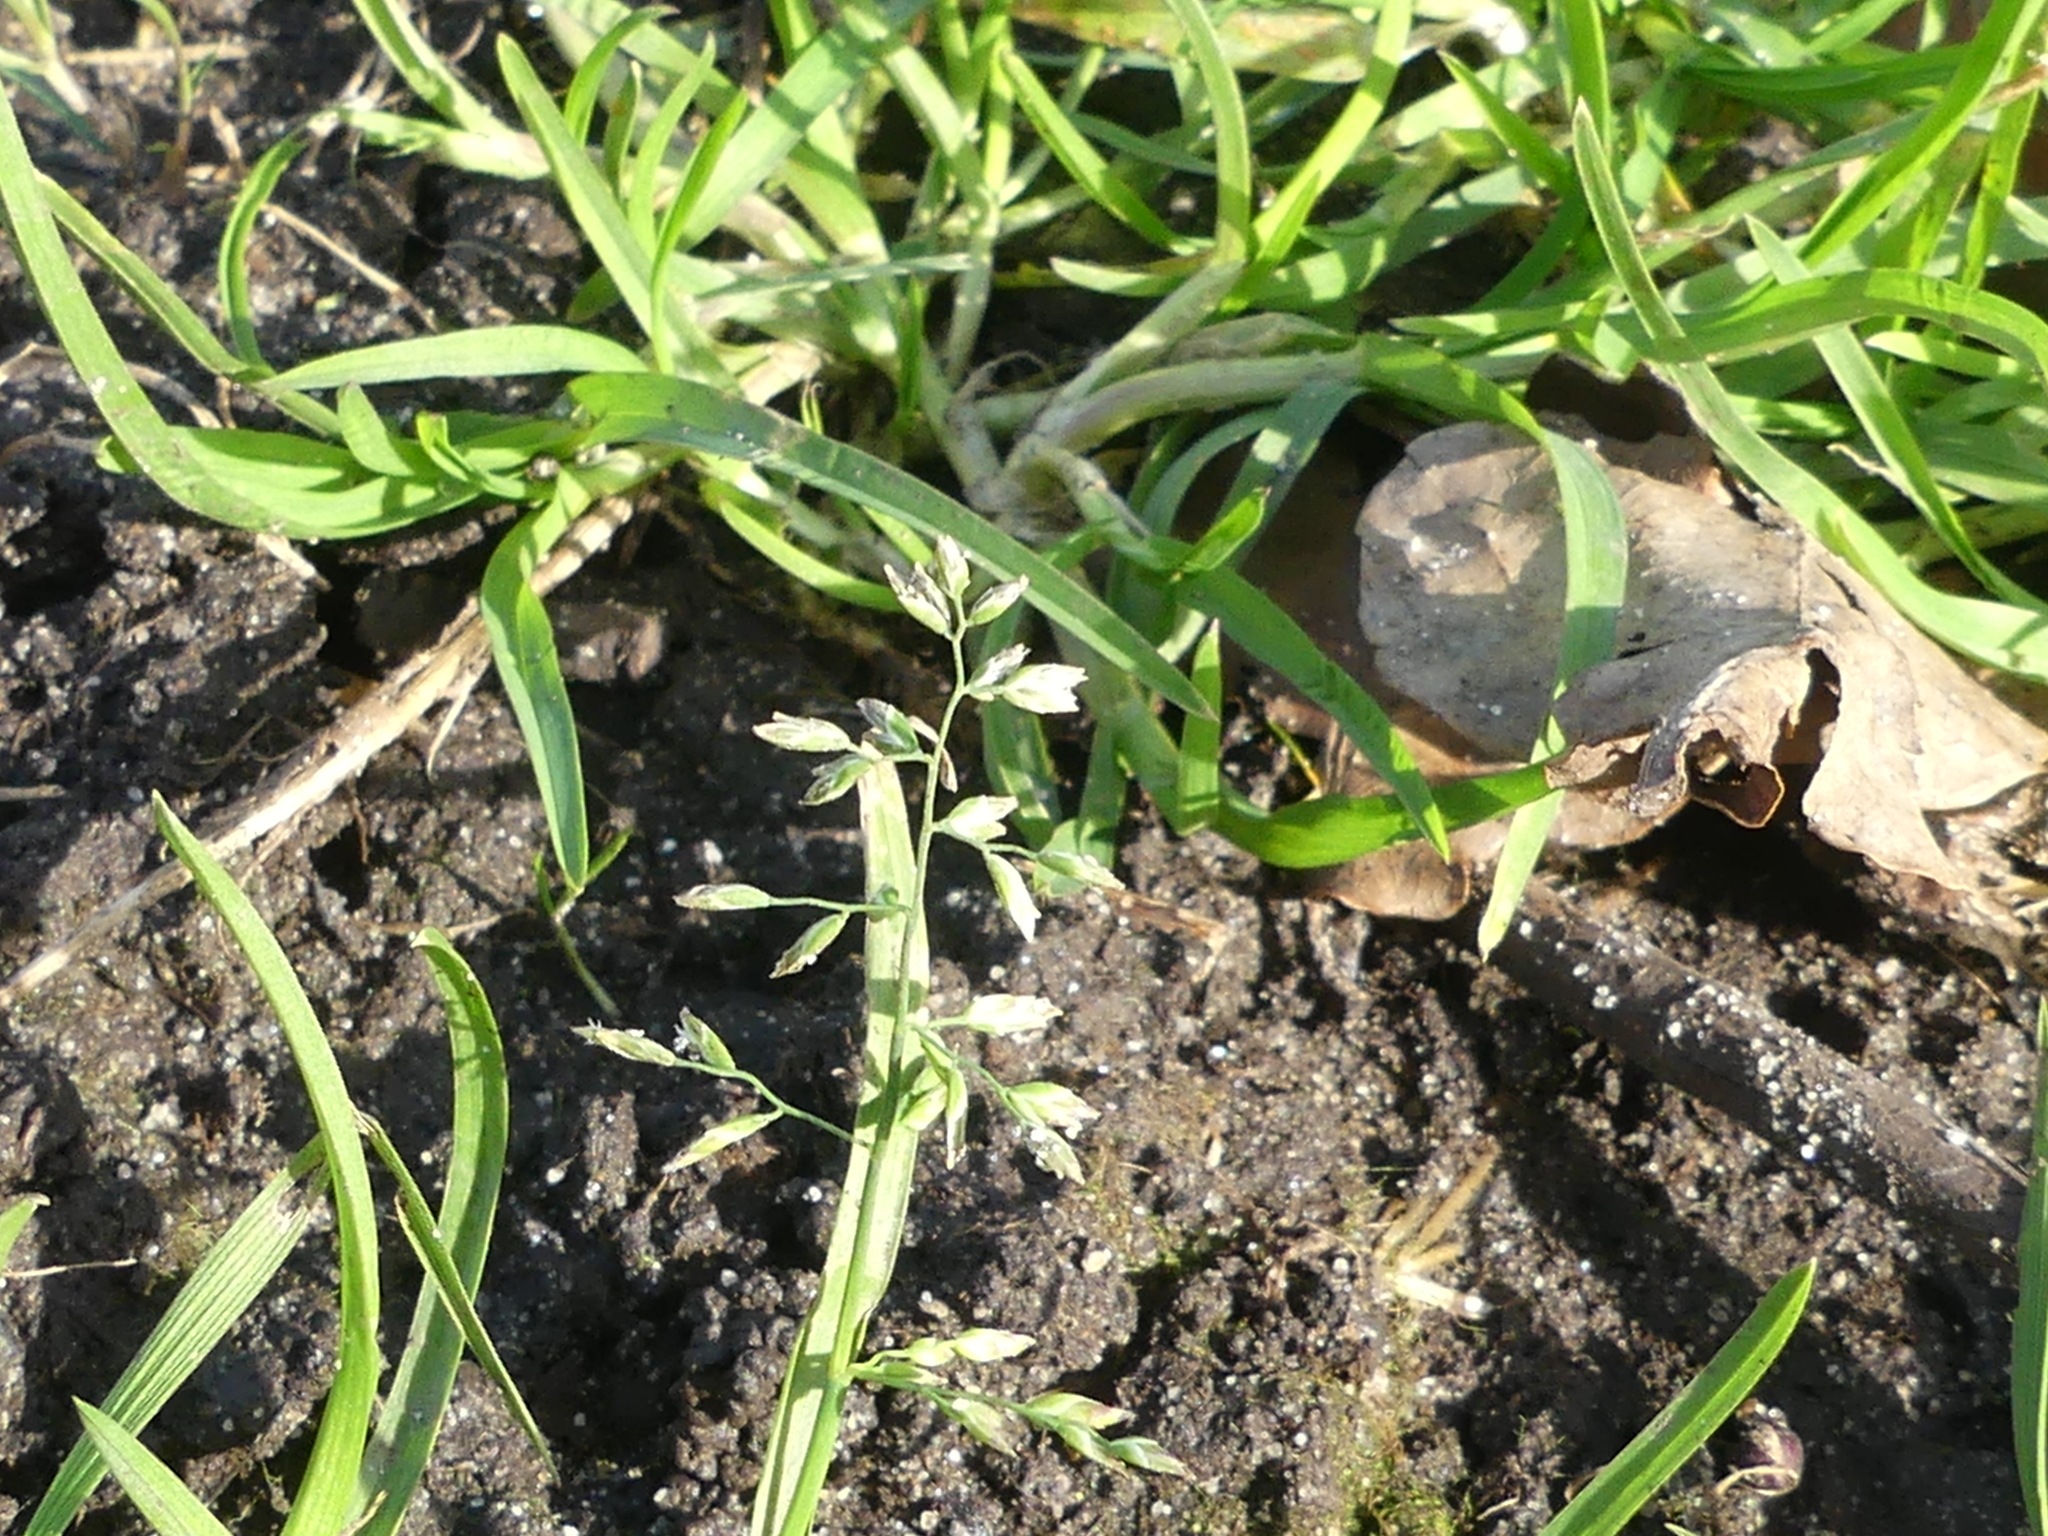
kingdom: Plantae
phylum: Tracheophyta
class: Liliopsida
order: Poales
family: Poaceae
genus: Poa
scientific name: Poa annua
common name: Annual bluegrass
